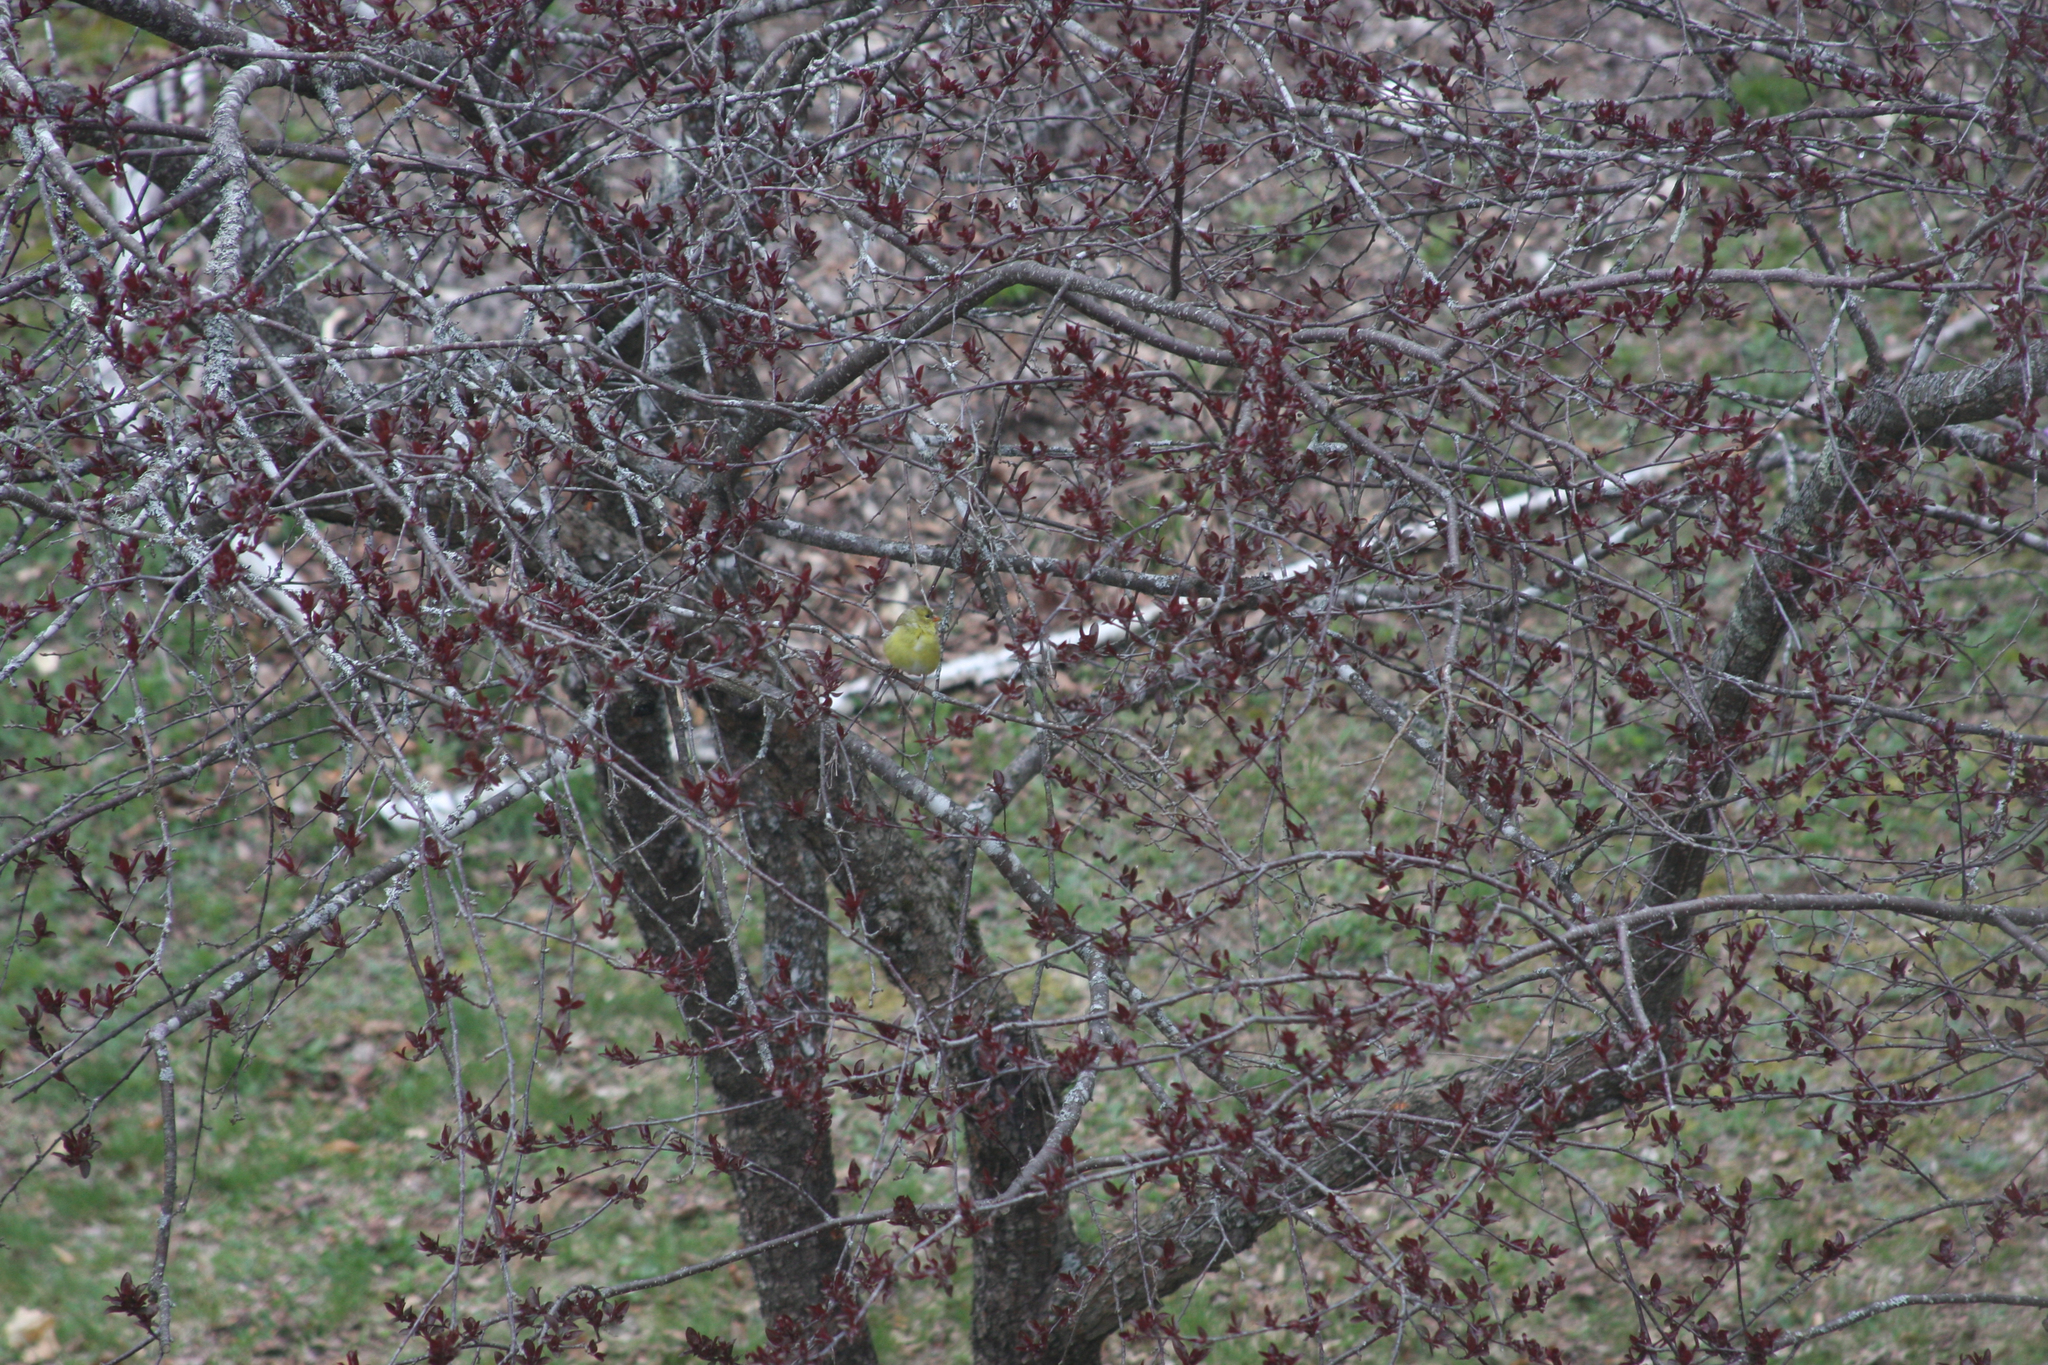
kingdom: Animalia
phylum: Chordata
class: Aves
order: Passeriformes
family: Fringillidae
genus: Spinus
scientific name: Spinus tristis
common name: American goldfinch
